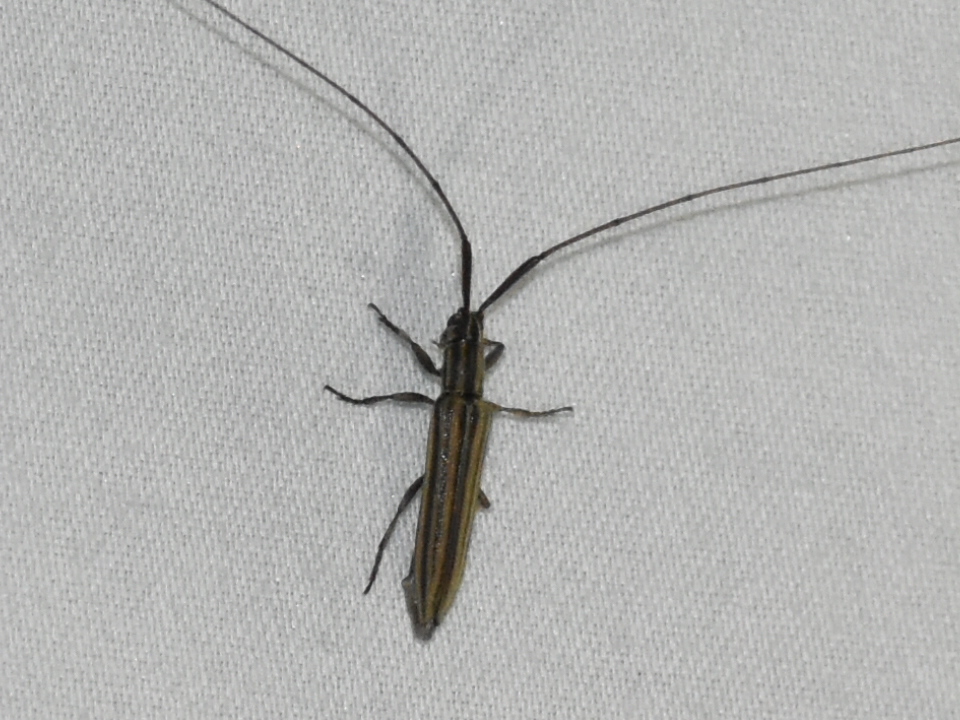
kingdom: Animalia
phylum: Arthropoda
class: Insecta
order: Coleoptera
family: Cerambycidae
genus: Hippopsis
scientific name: Hippopsis lineolatus
